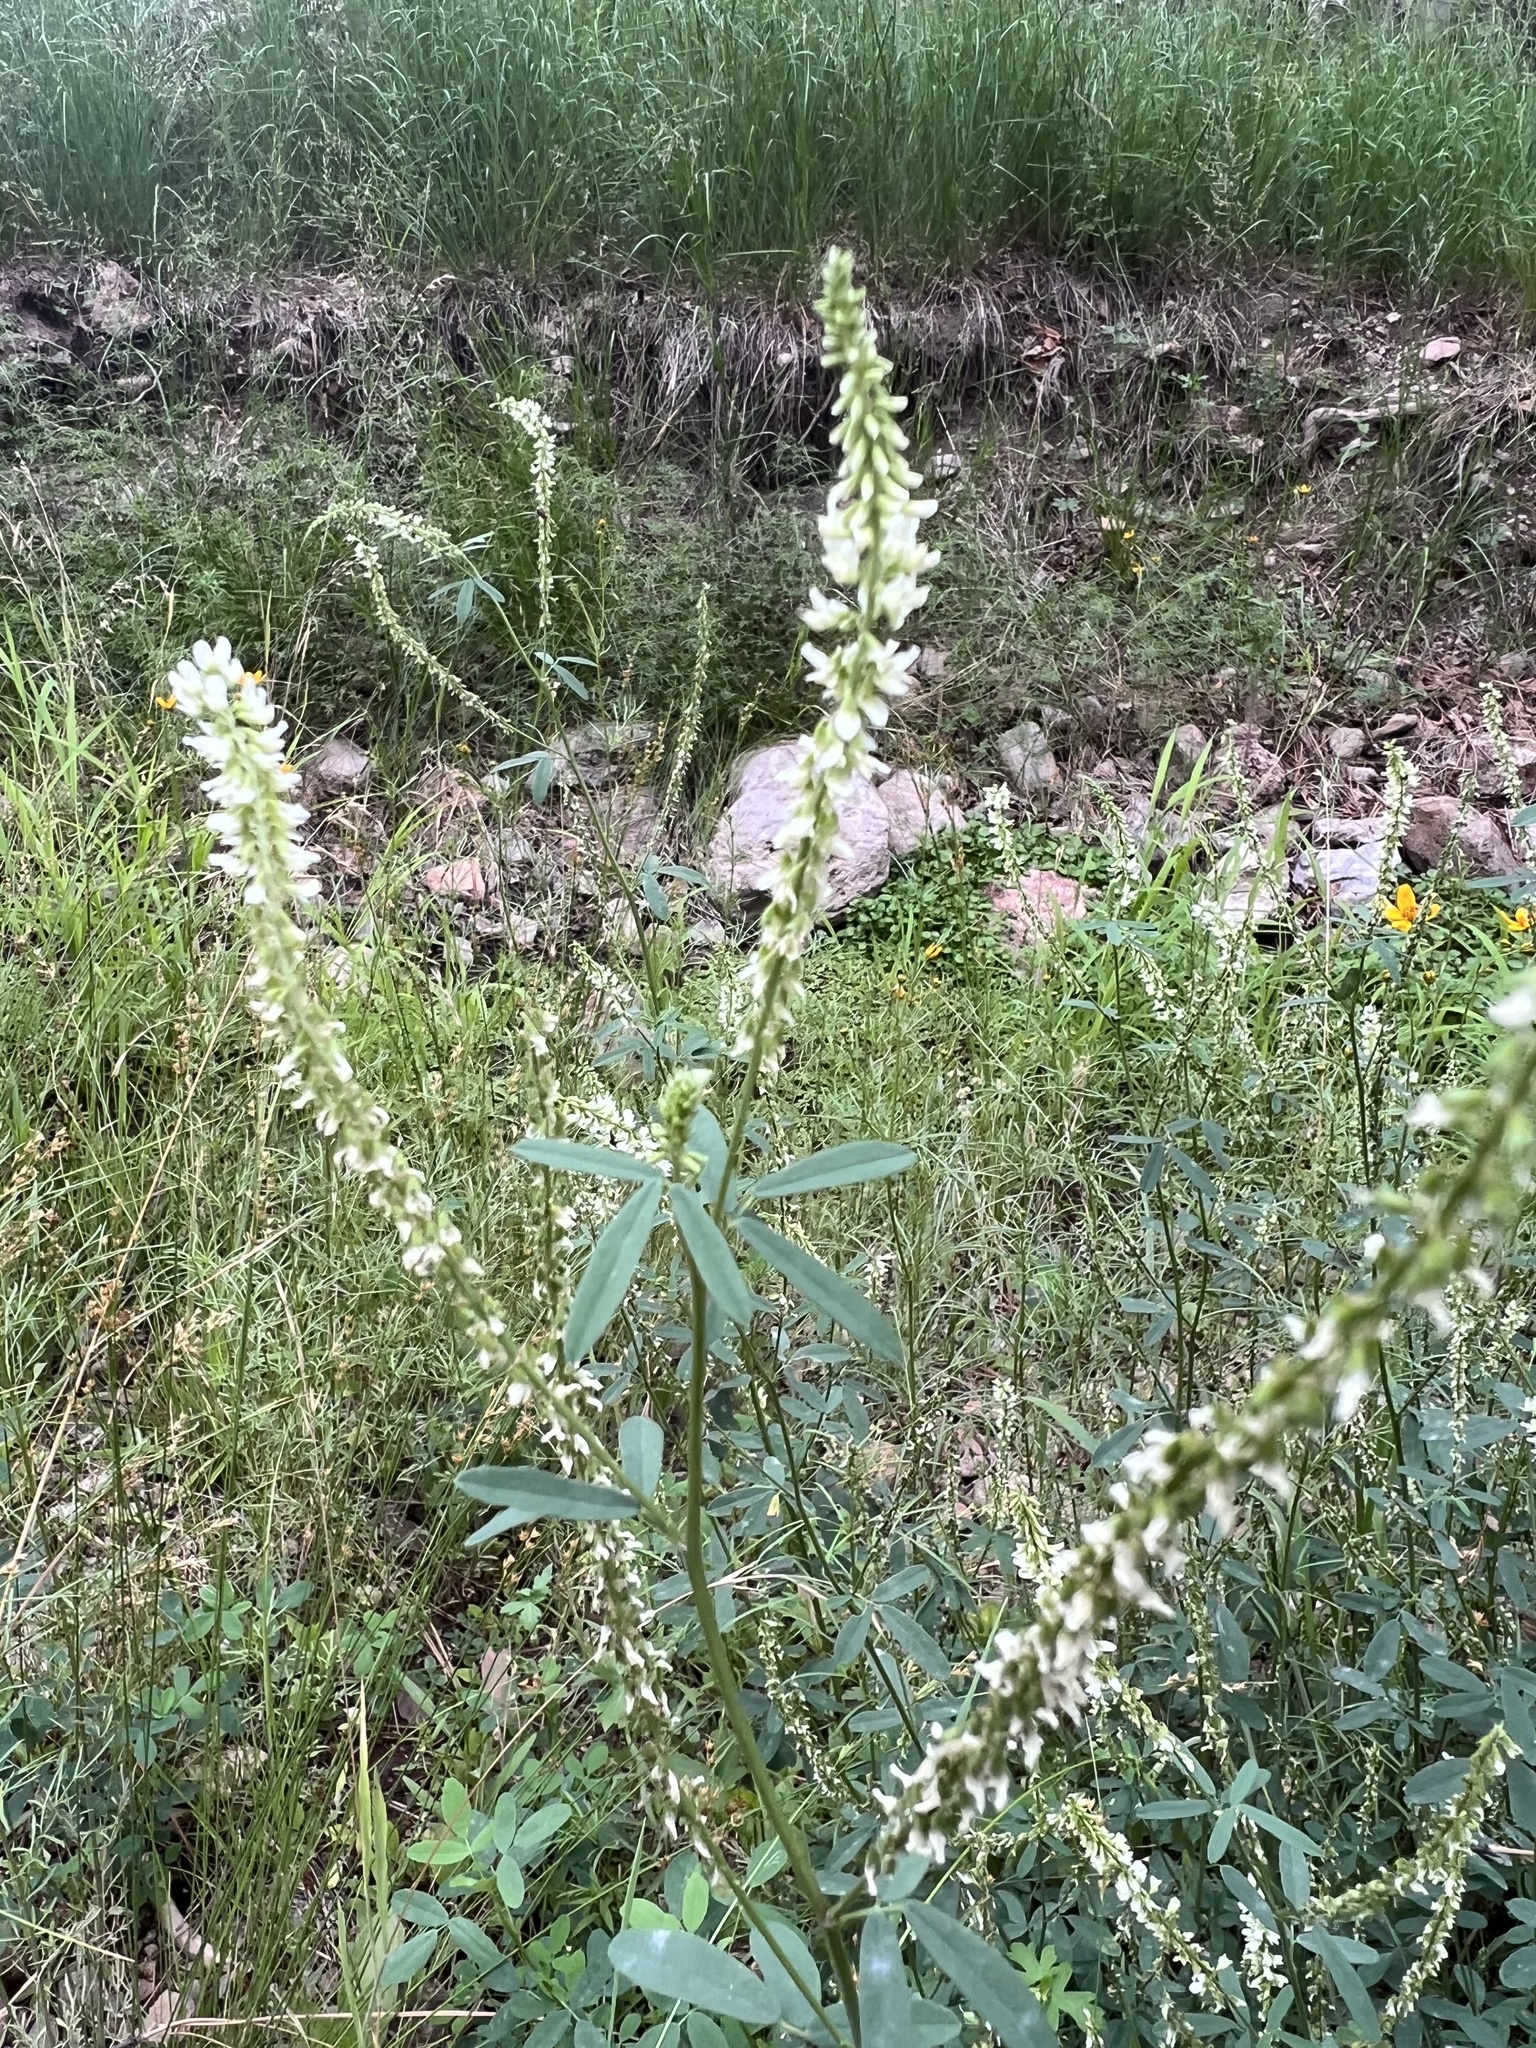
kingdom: Plantae
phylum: Tracheophyta
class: Magnoliopsida
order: Fabales
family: Fabaceae
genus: Melilotus
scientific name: Melilotus albus
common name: White melilot
